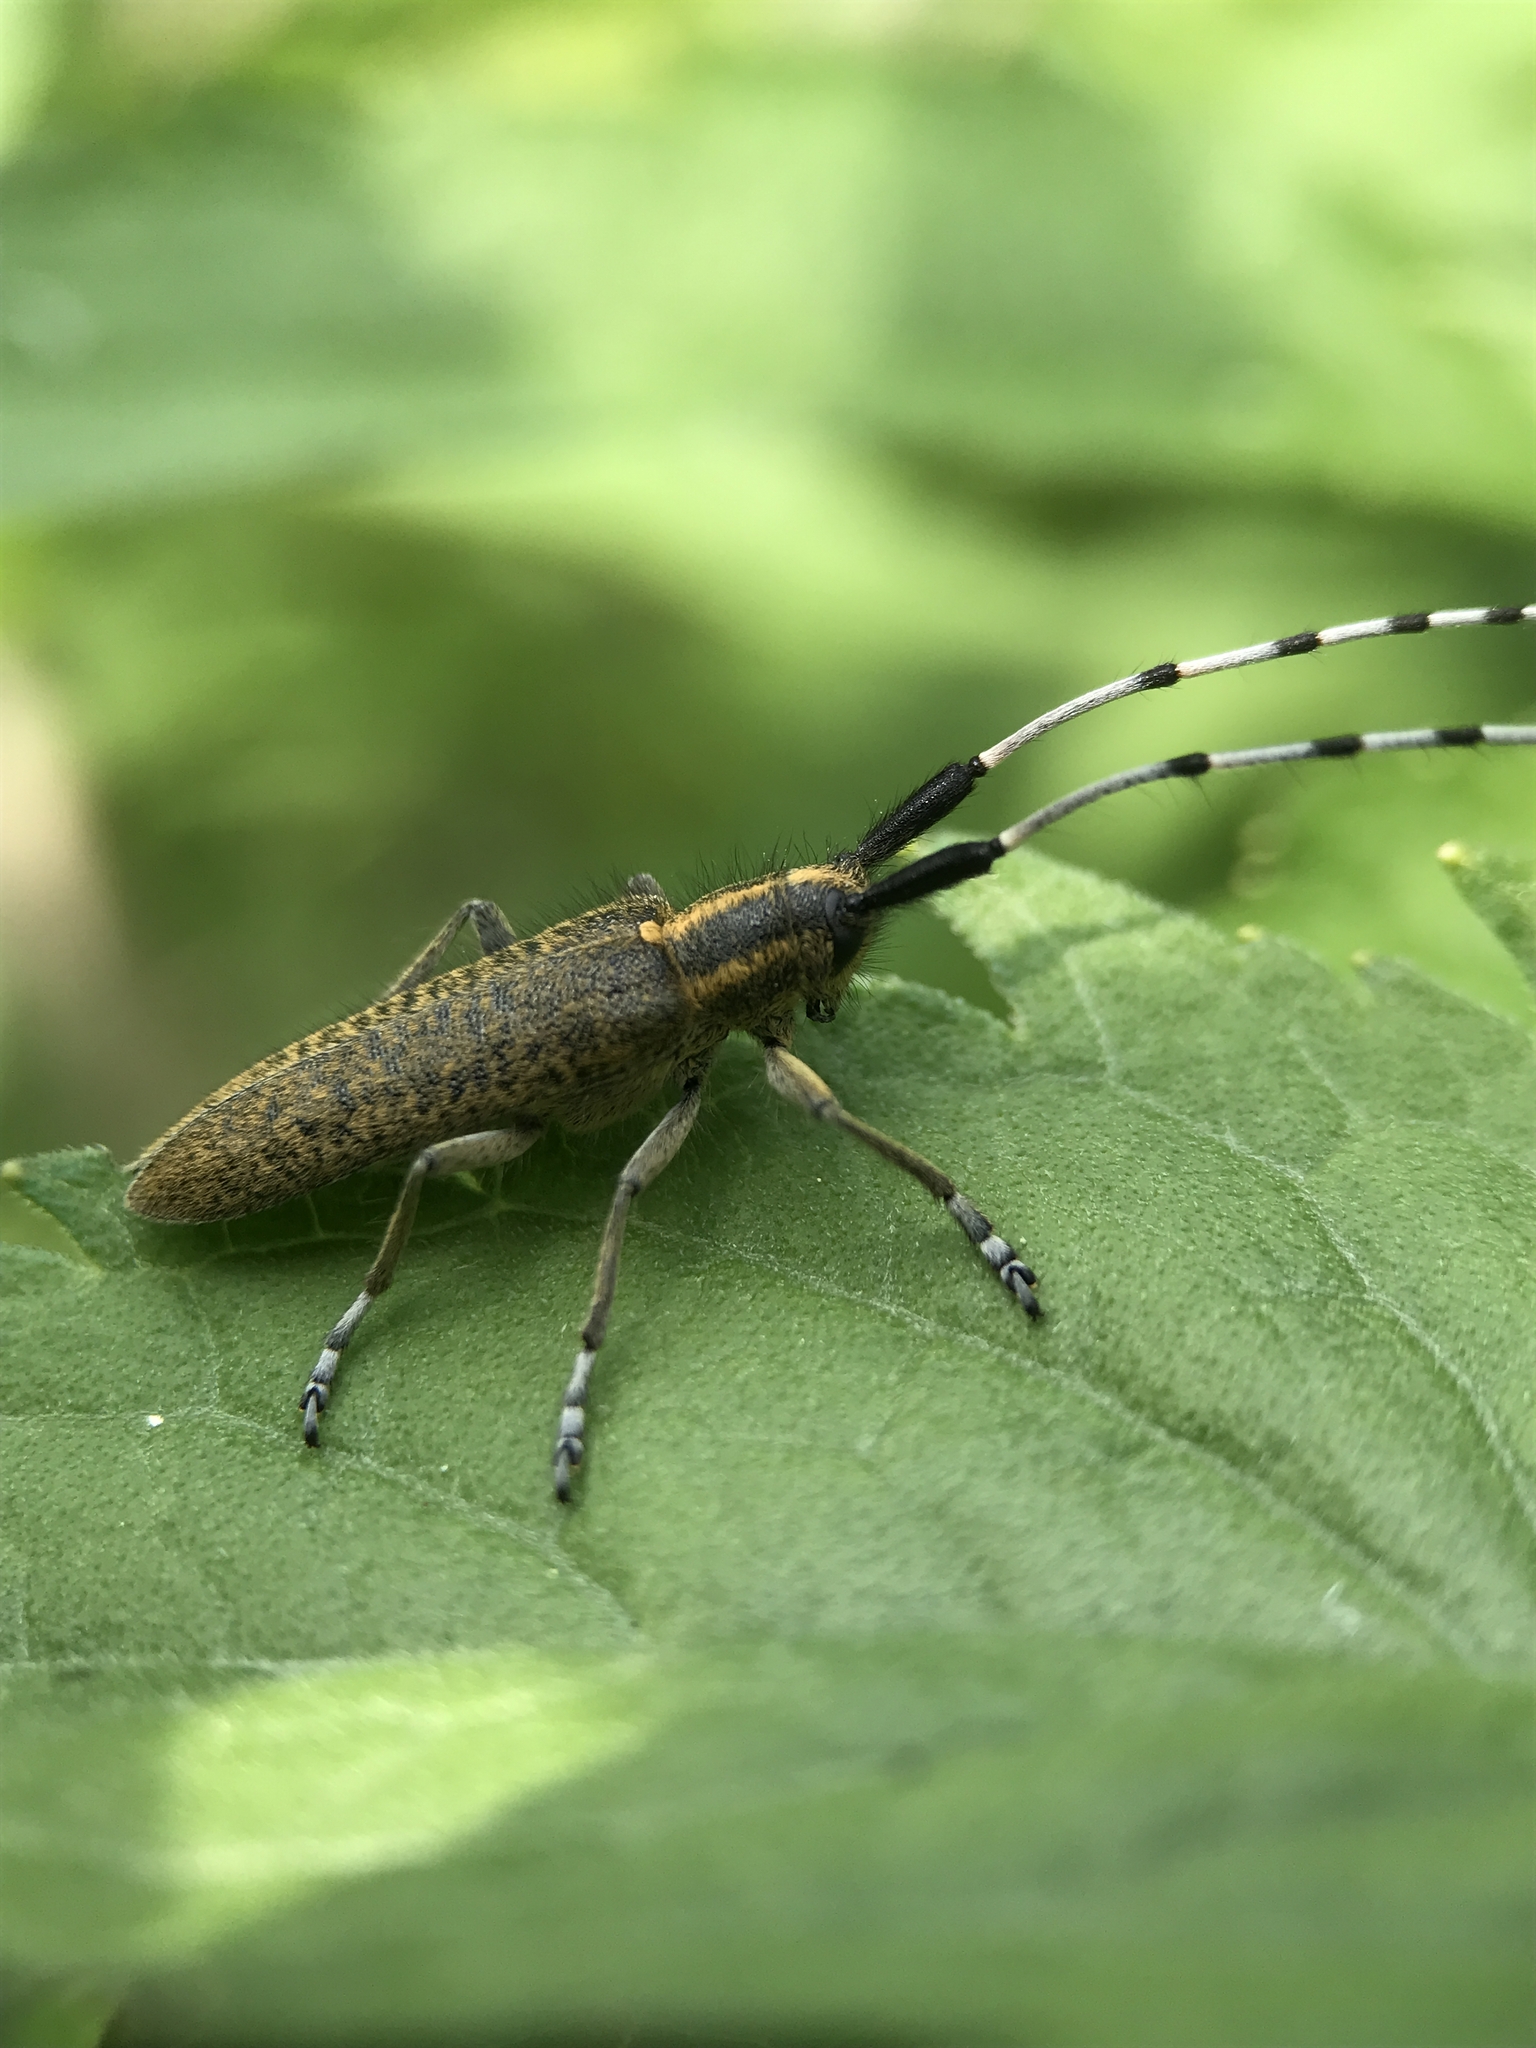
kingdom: Animalia
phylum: Arthropoda
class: Insecta
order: Coleoptera
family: Cerambycidae
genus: Agapanthia
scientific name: Agapanthia villosoviridescens
